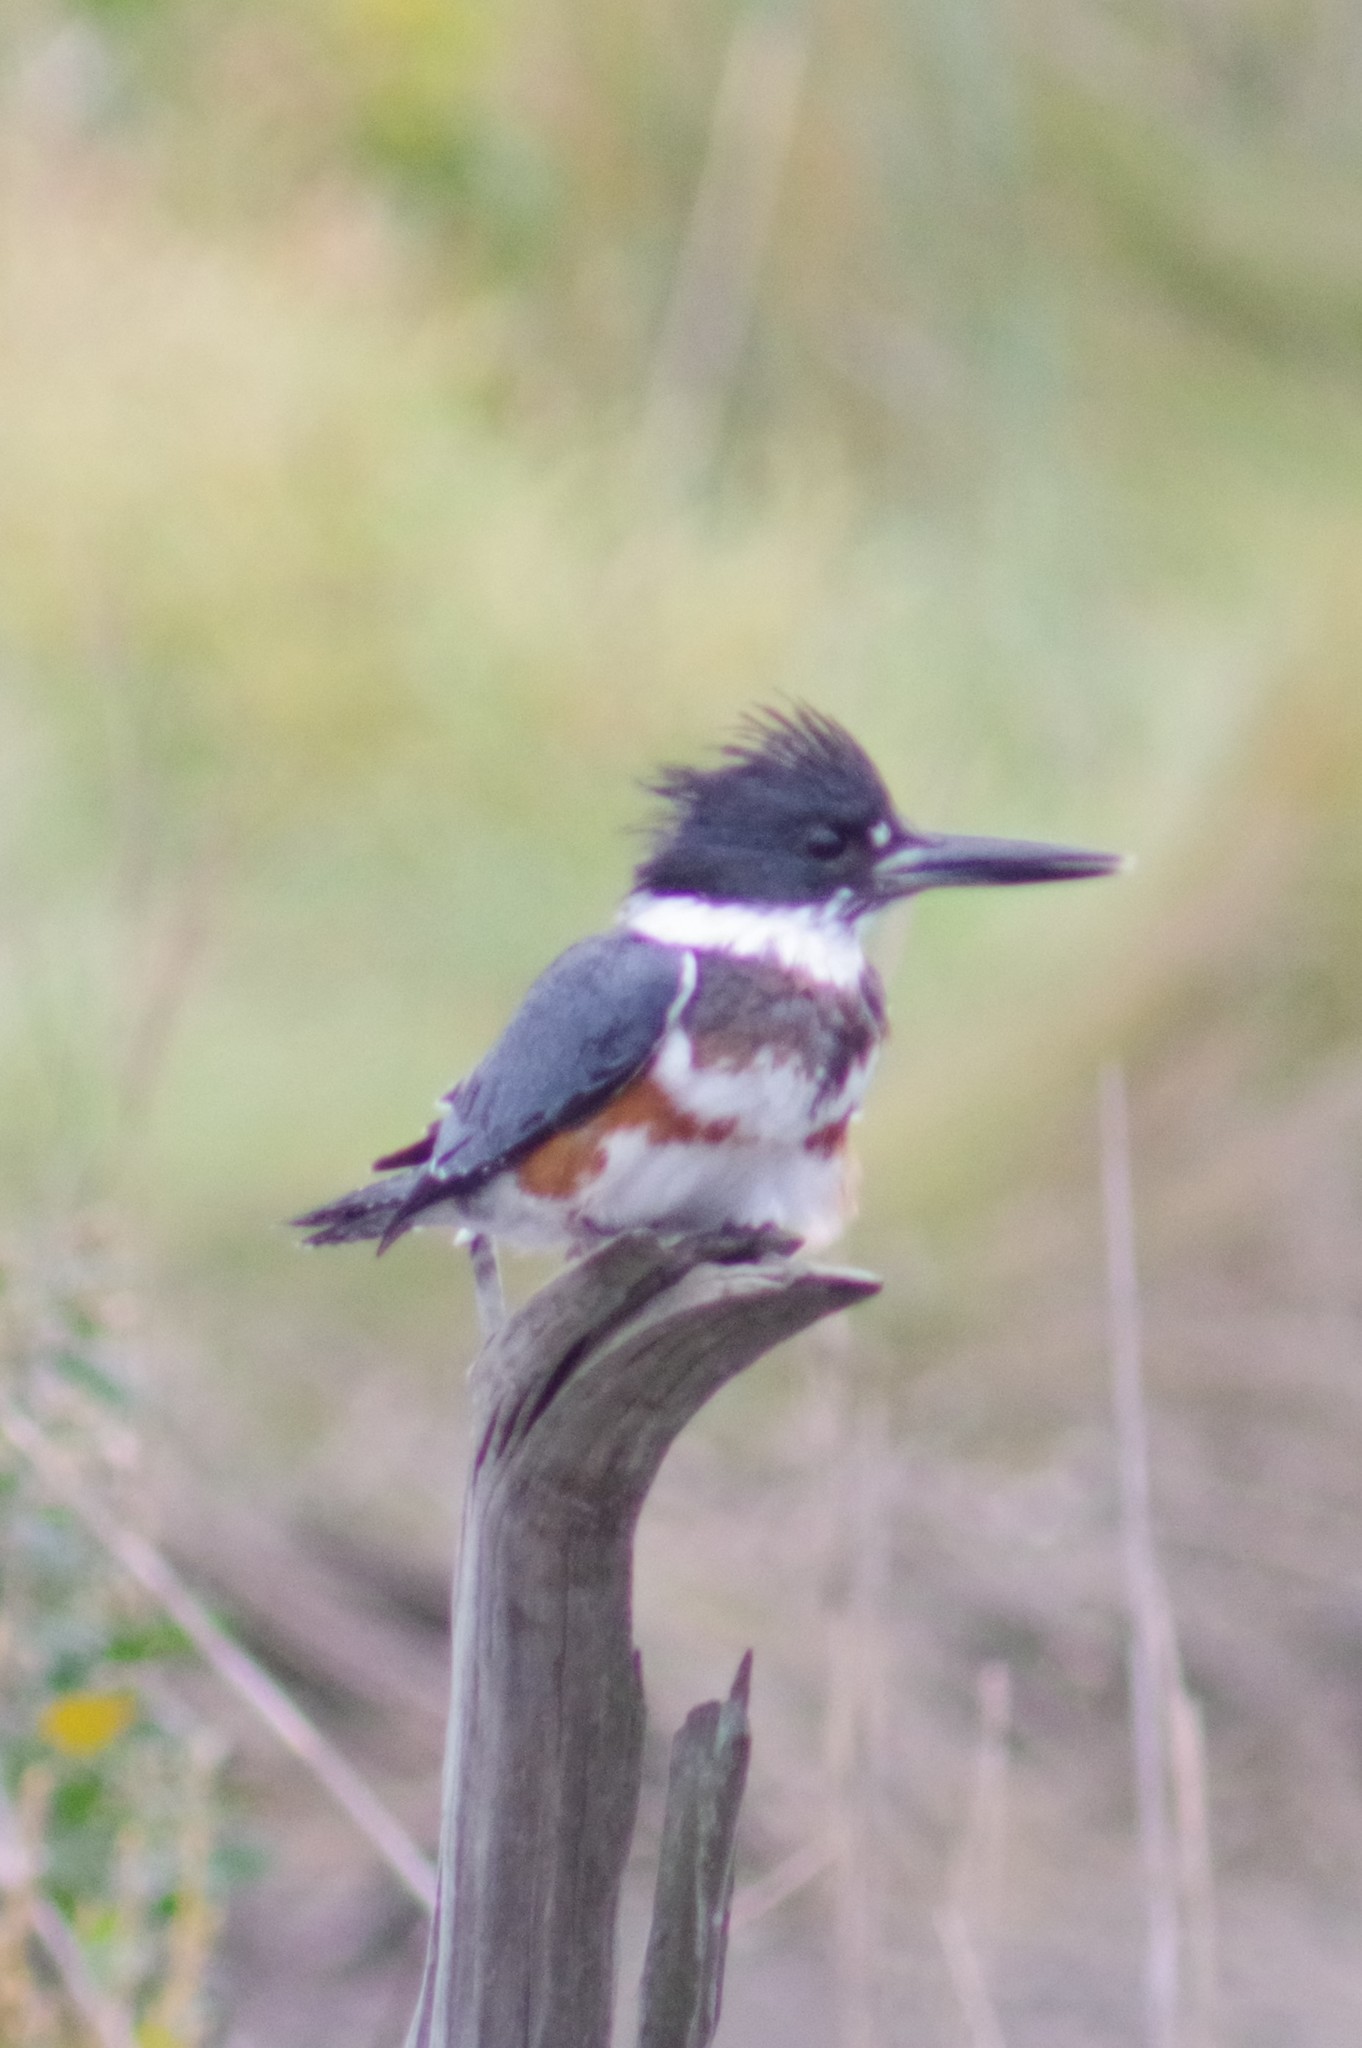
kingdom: Animalia
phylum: Chordata
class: Aves
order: Coraciiformes
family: Alcedinidae
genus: Megaceryle
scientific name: Megaceryle alcyon
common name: Belted kingfisher
